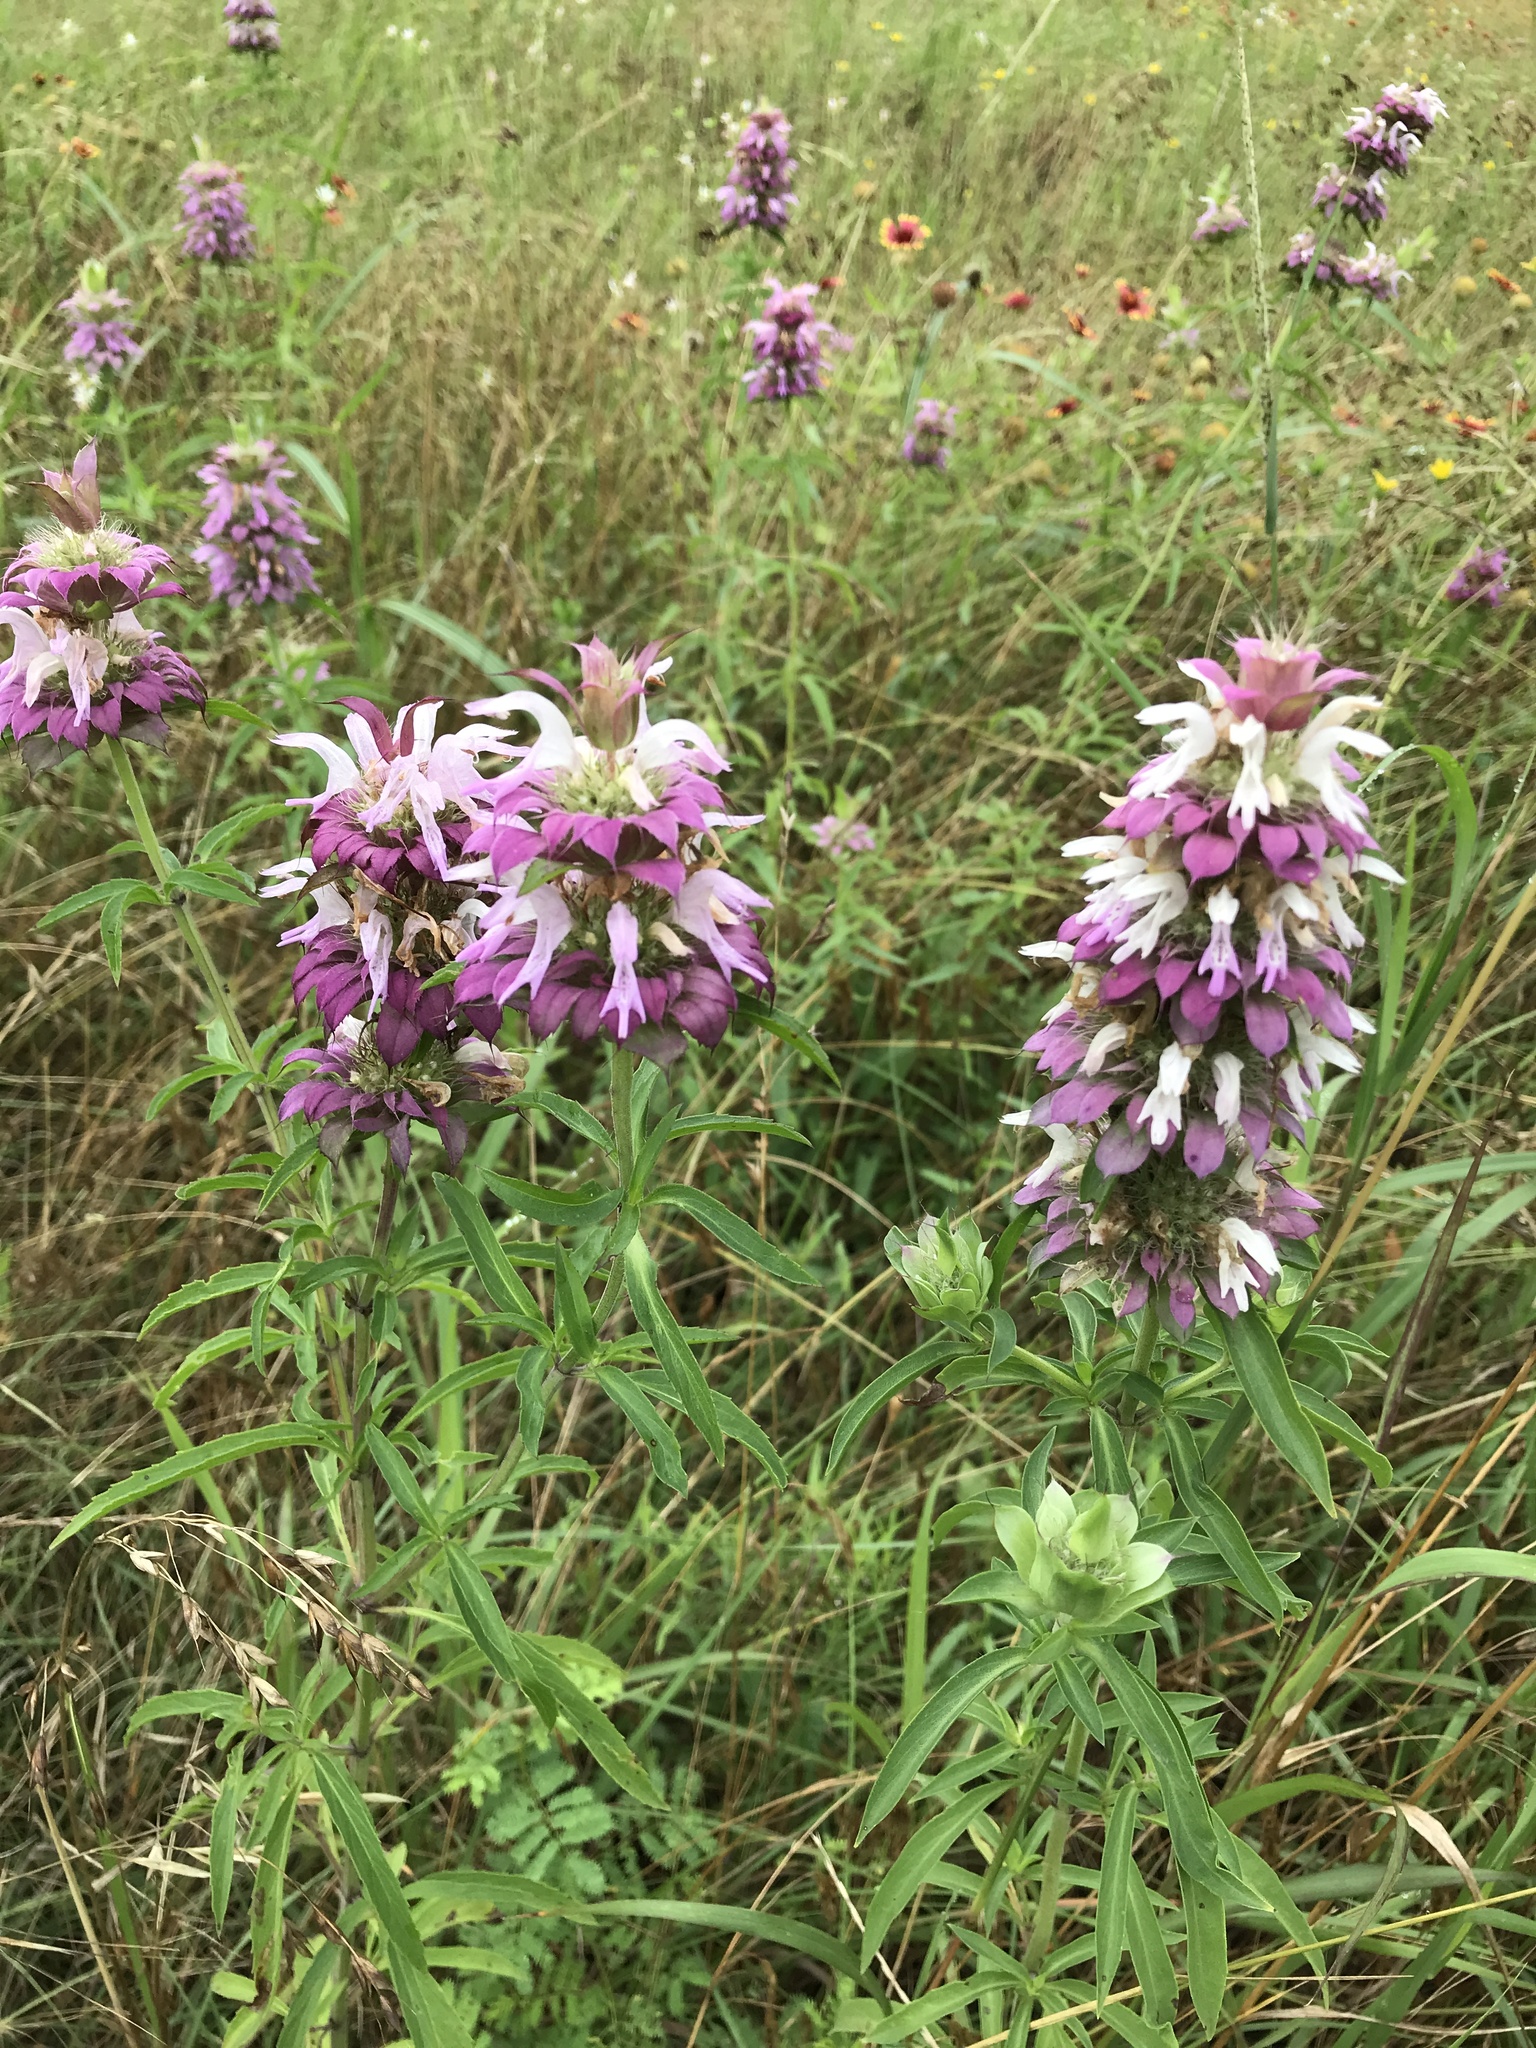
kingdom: Plantae
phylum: Tracheophyta
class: Magnoliopsida
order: Lamiales
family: Lamiaceae
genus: Monarda
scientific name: Monarda citriodora
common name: Lemon beebalm
